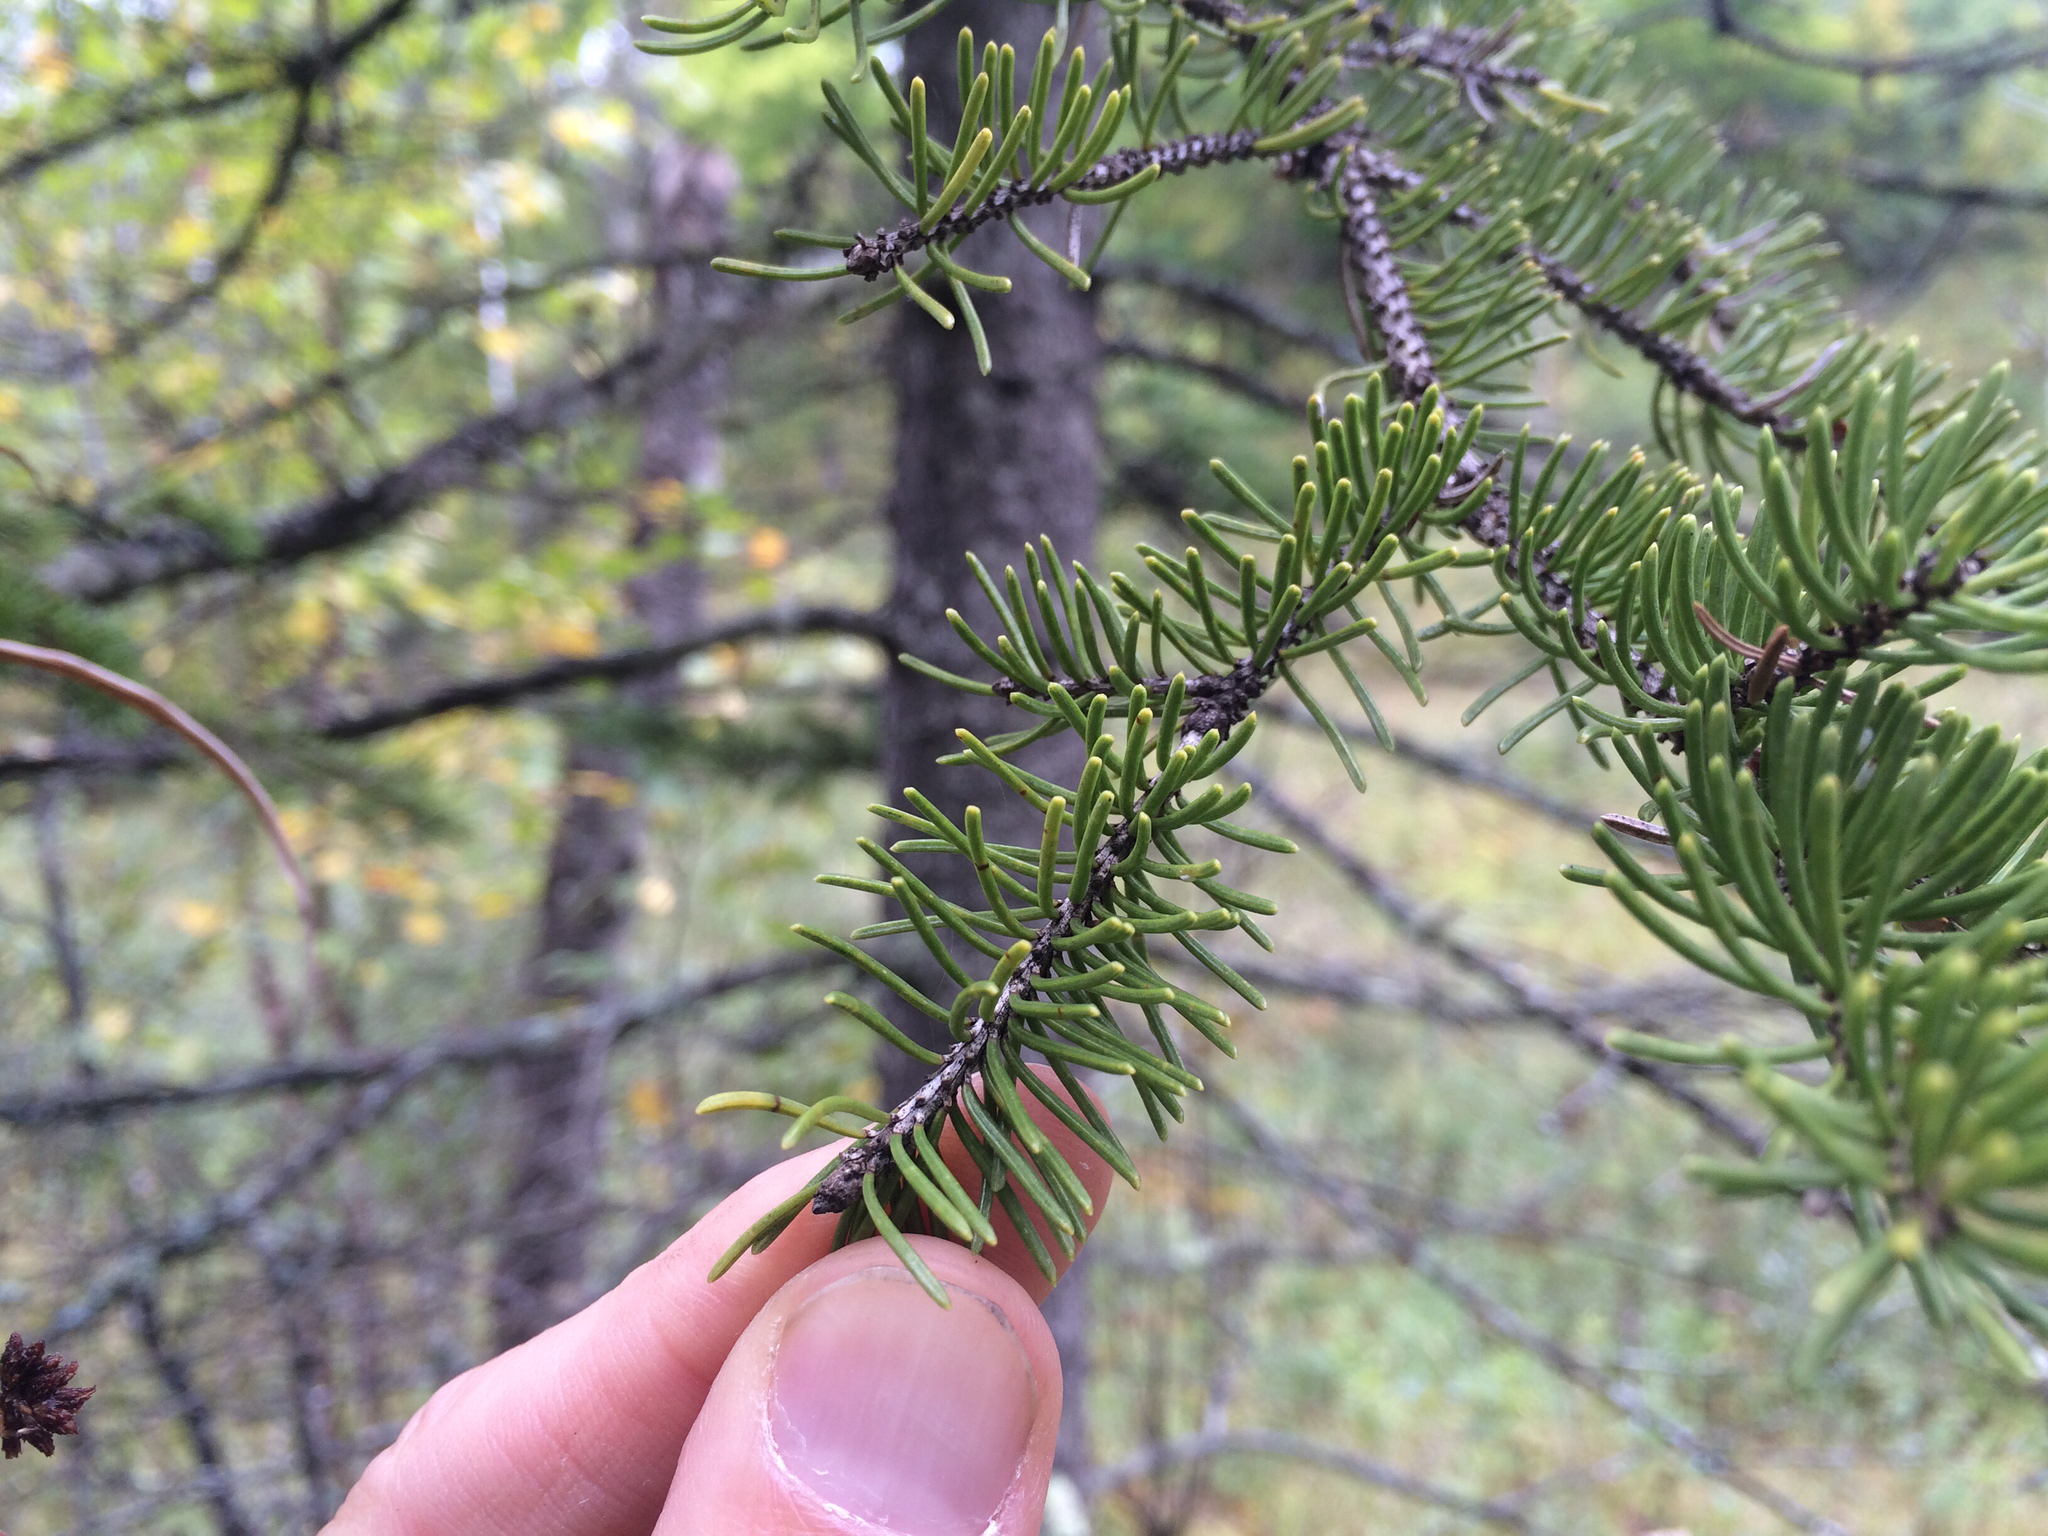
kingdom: Plantae
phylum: Tracheophyta
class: Pinopsida
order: Pinales
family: Pinaceae
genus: Picea
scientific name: Picea glauca
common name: White spruce
